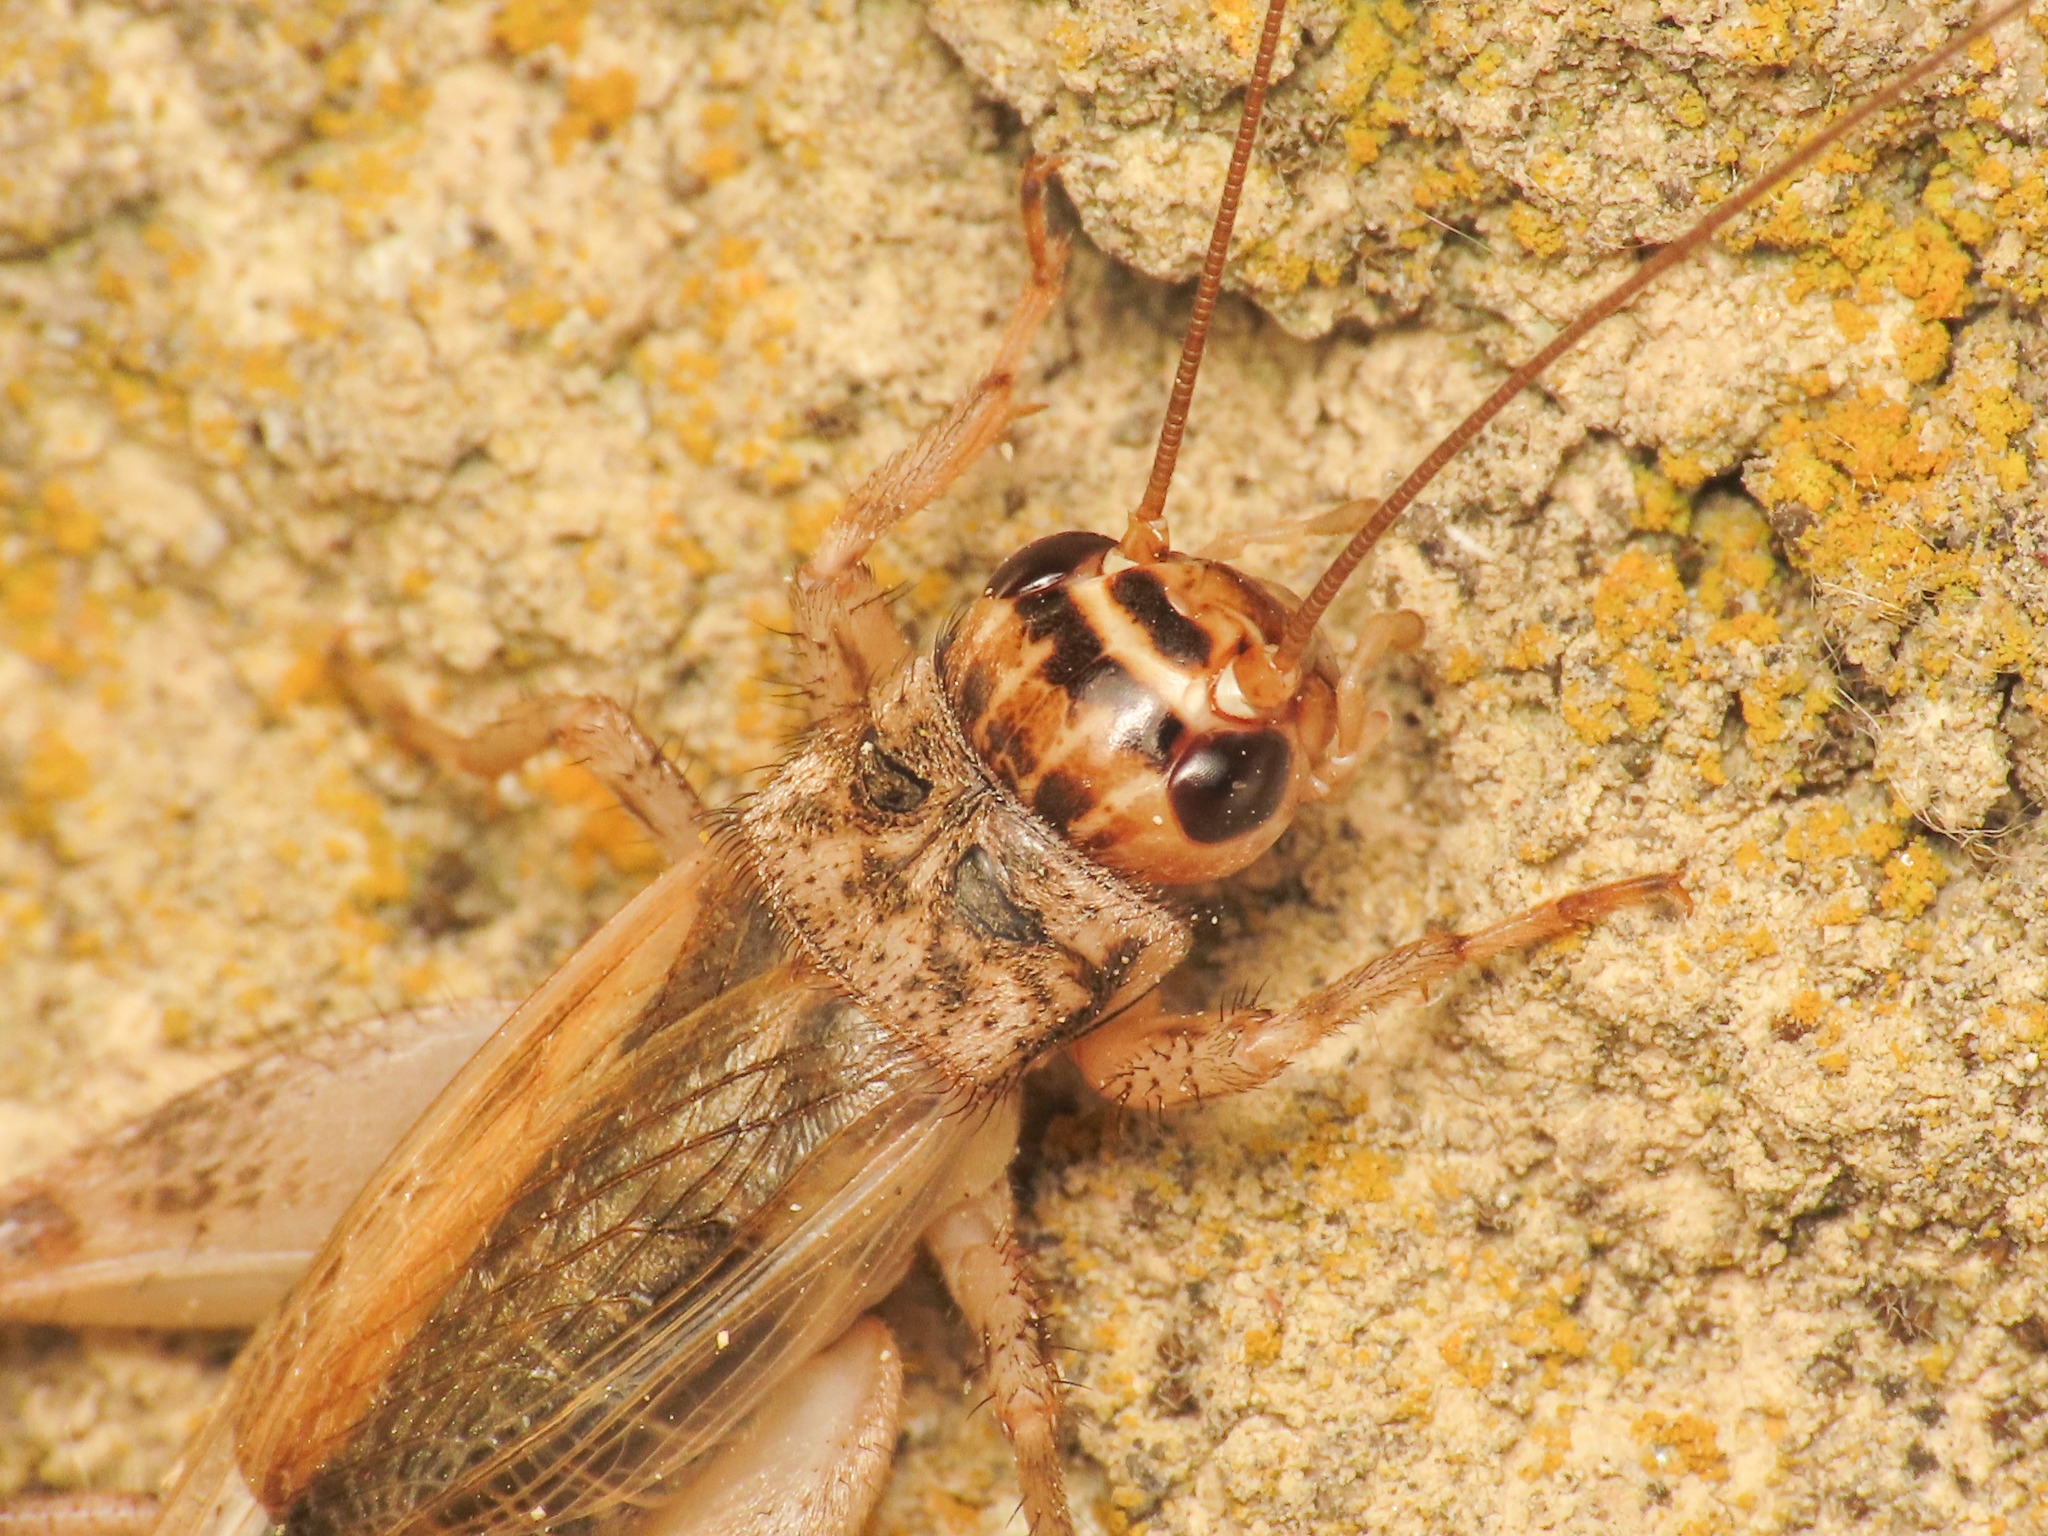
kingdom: Animalia
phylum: Arthropoda
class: Insecta
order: Orthoptera
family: Gryllidae
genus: Eumodicogryllus
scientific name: Eumodicogryllus bordigalensis
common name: Bordeaux cricket
